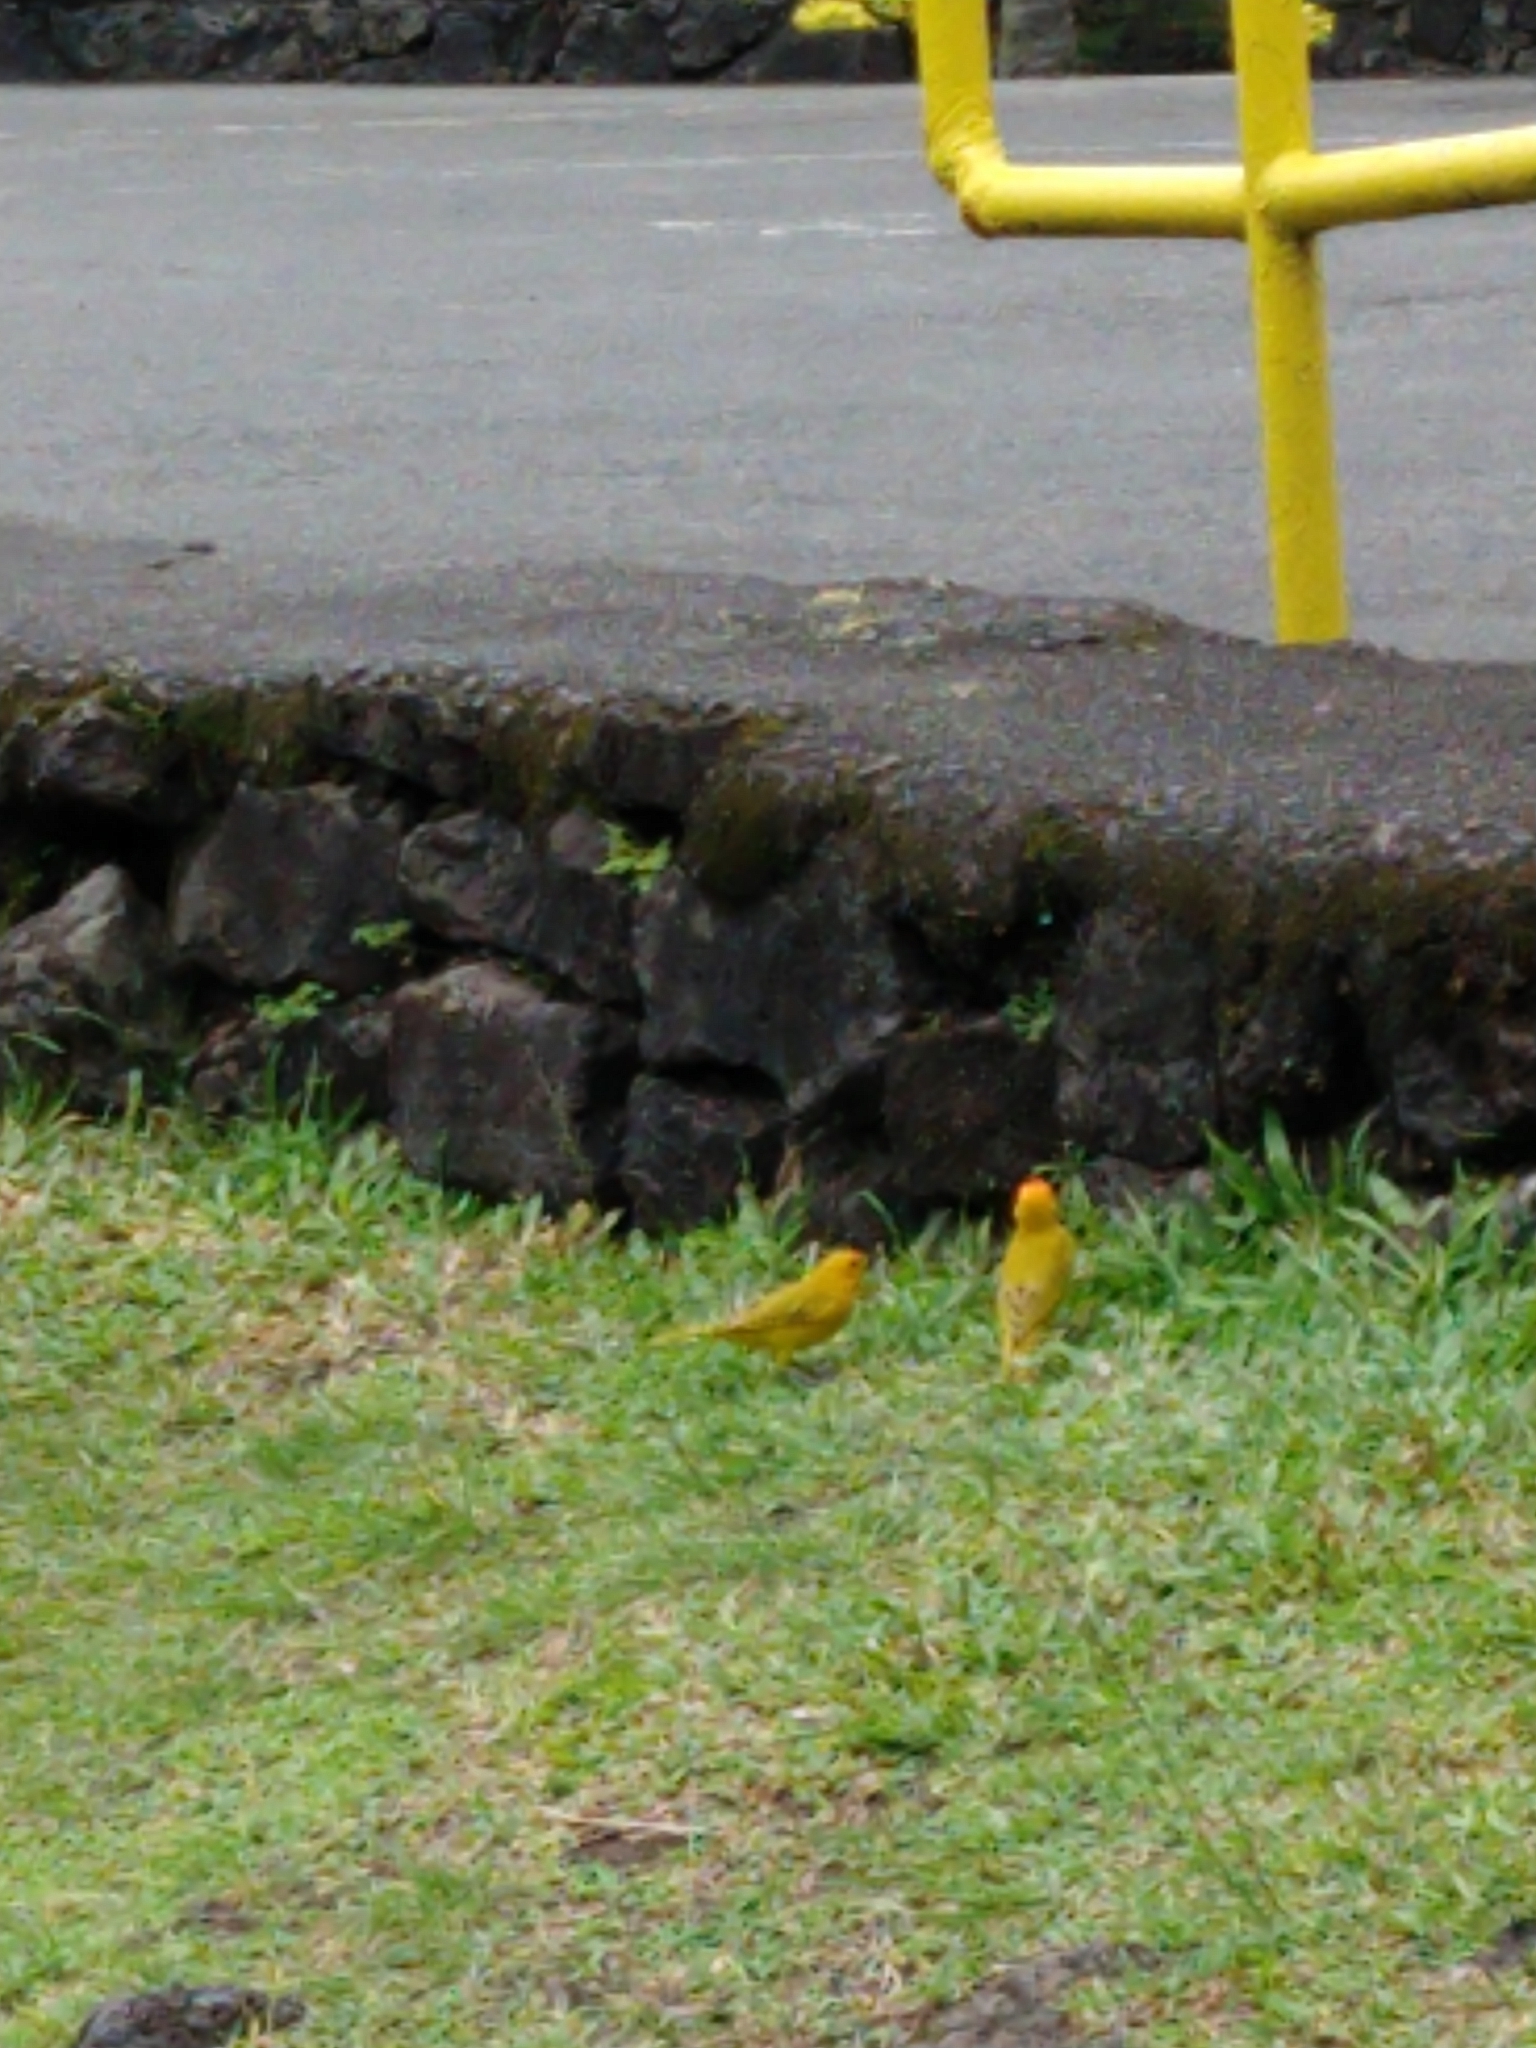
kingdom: Animalia
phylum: Chordata
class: Aves
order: Passeriformes
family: Thraupidae
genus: Sicalis
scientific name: Sicalis flaveola
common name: Saffron finch
